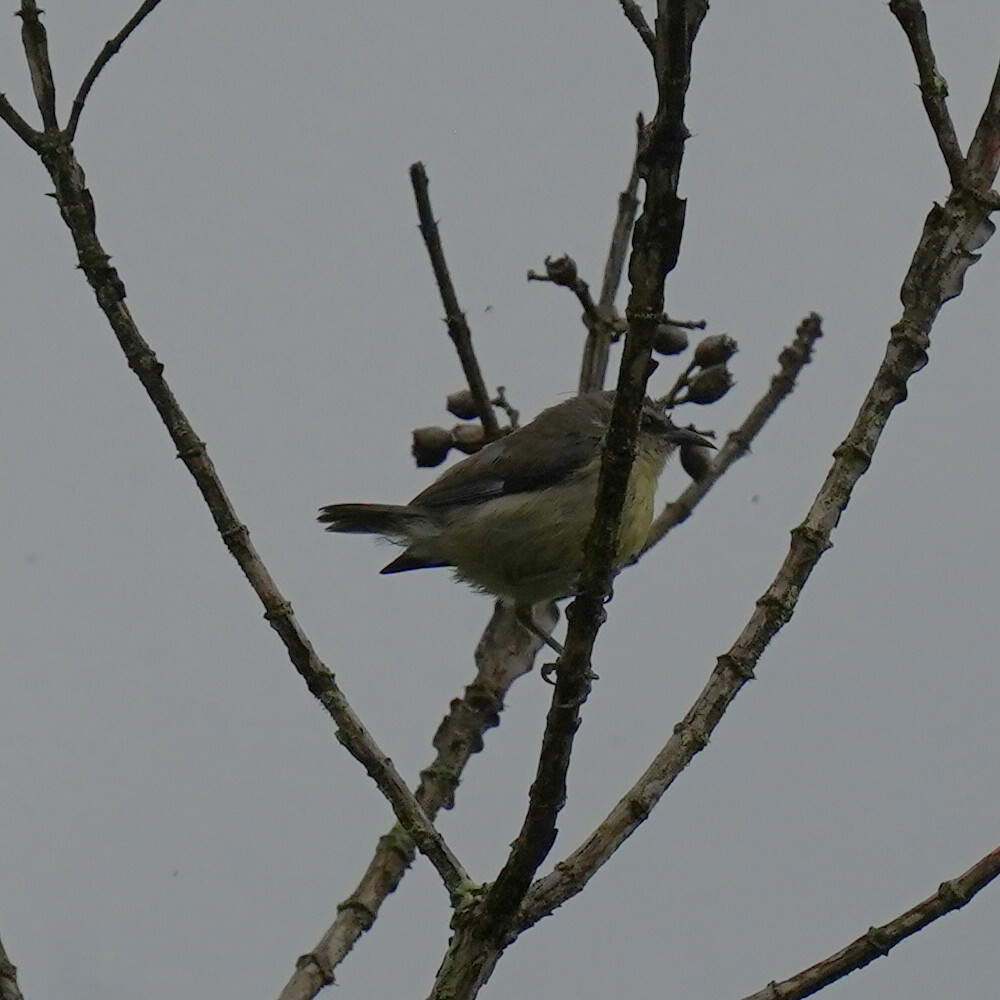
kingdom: Animalia
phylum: Chordata
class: Aves
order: Passeriformes
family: Thraupidae
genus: Coereba
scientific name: Coereba flaveola
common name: Bananaquit
